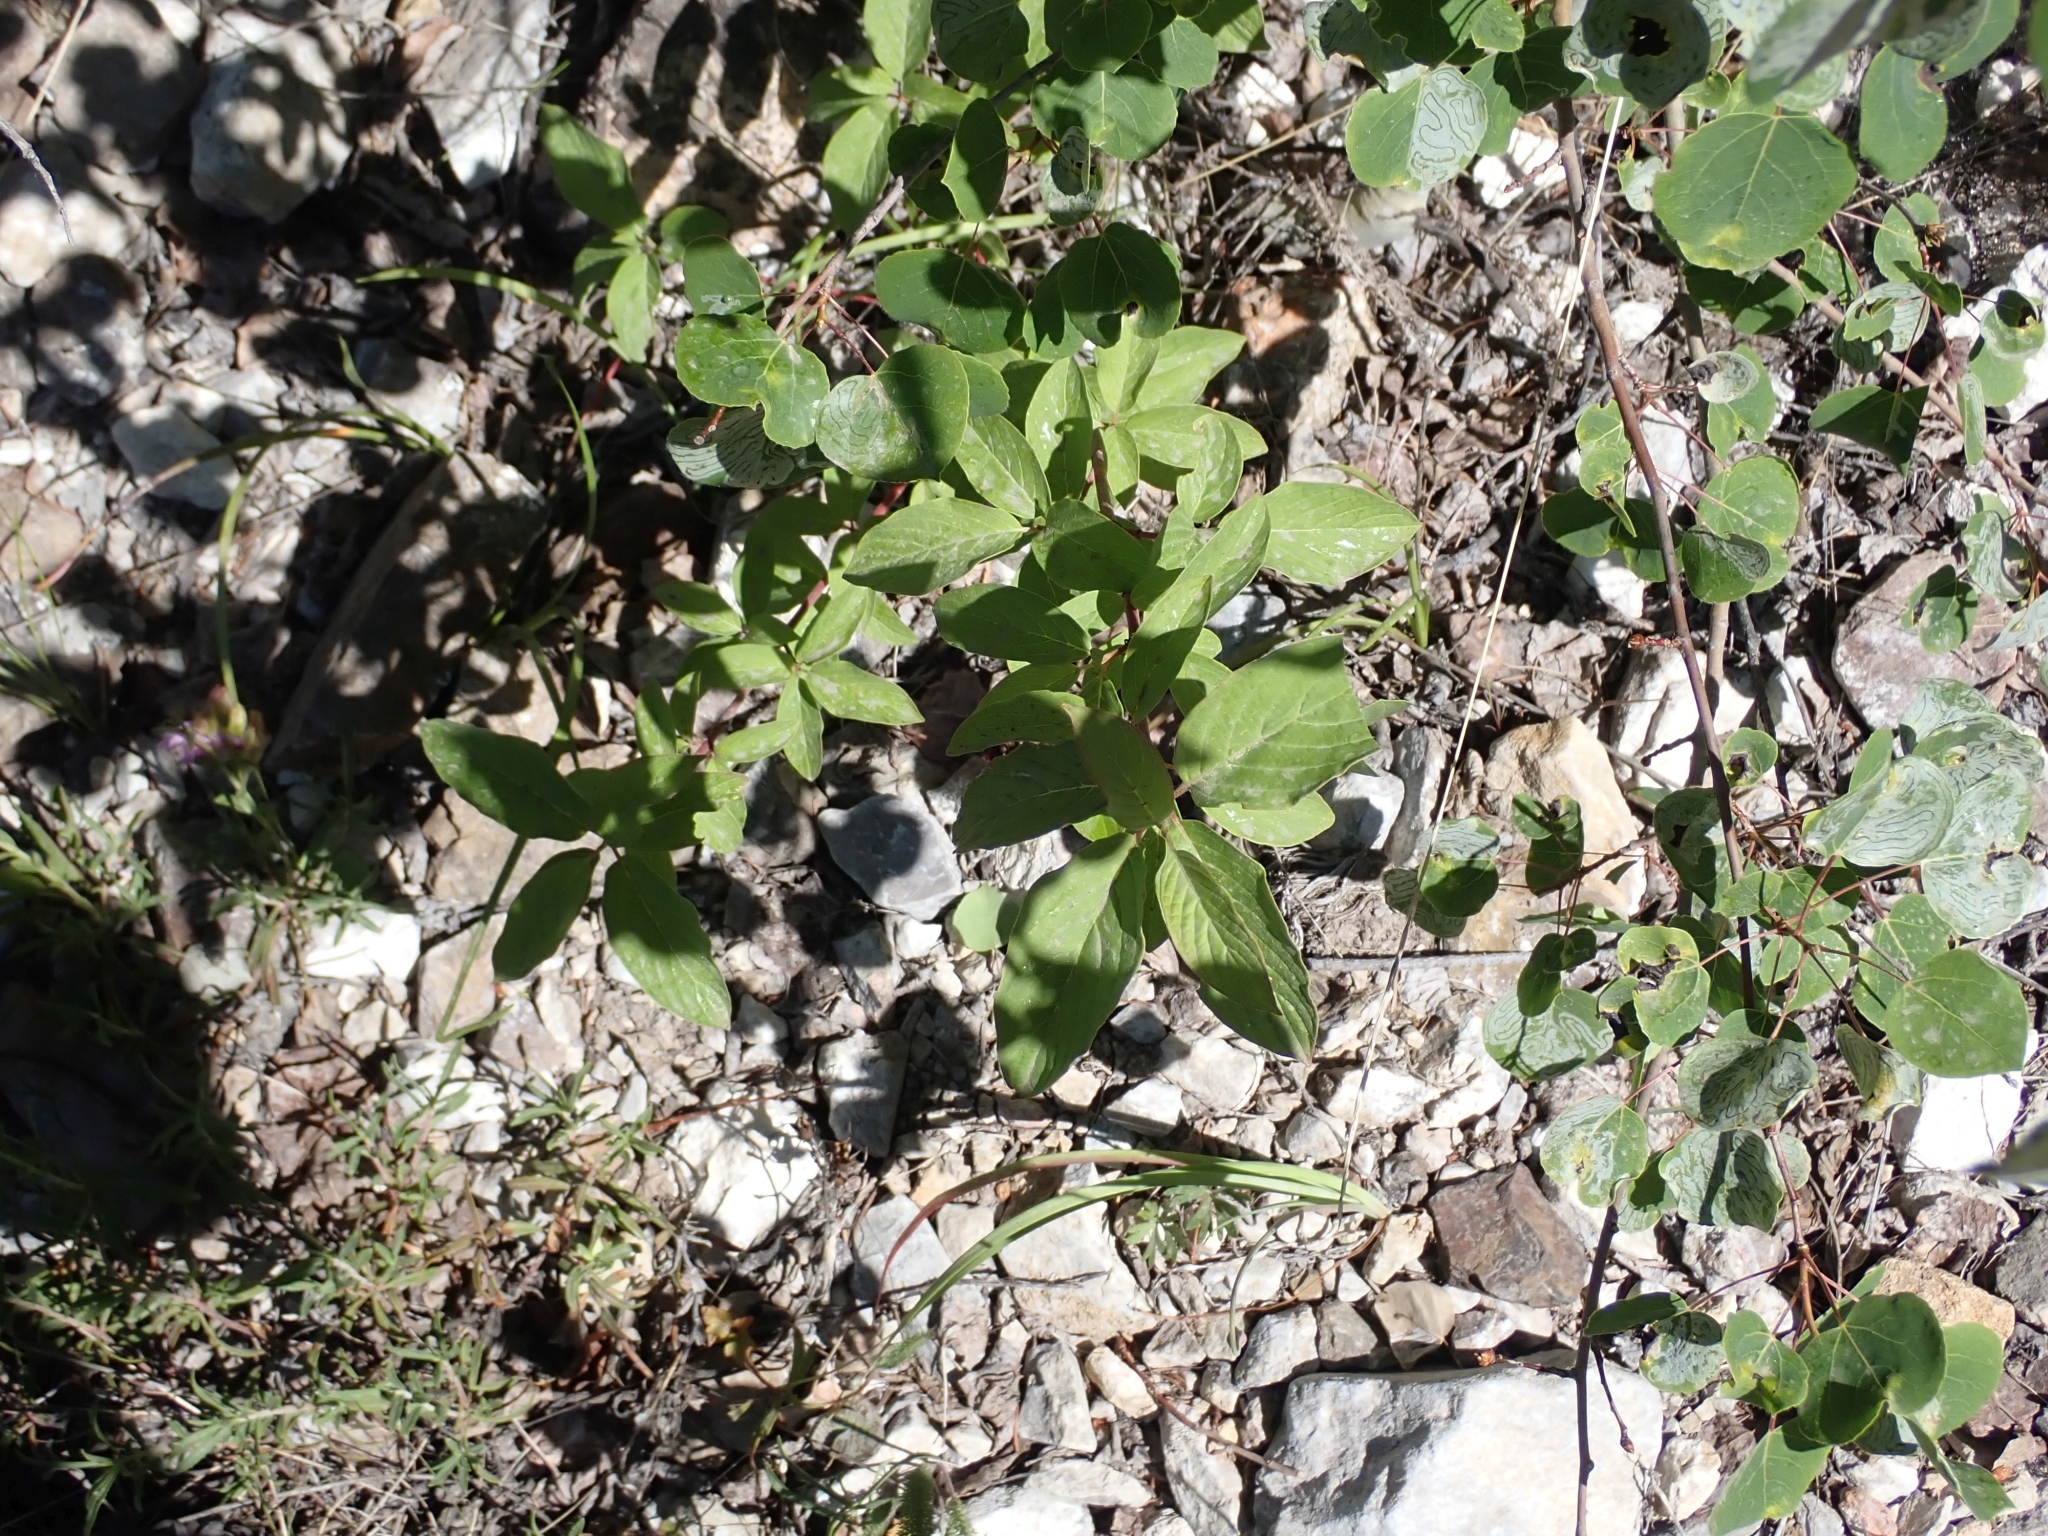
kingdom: Plantae
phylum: Tracheophyta
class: Magnoliopsida
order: Cornales
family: Cornaceae
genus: Cornus
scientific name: Cornus sericea
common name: Red-osier dogwood
